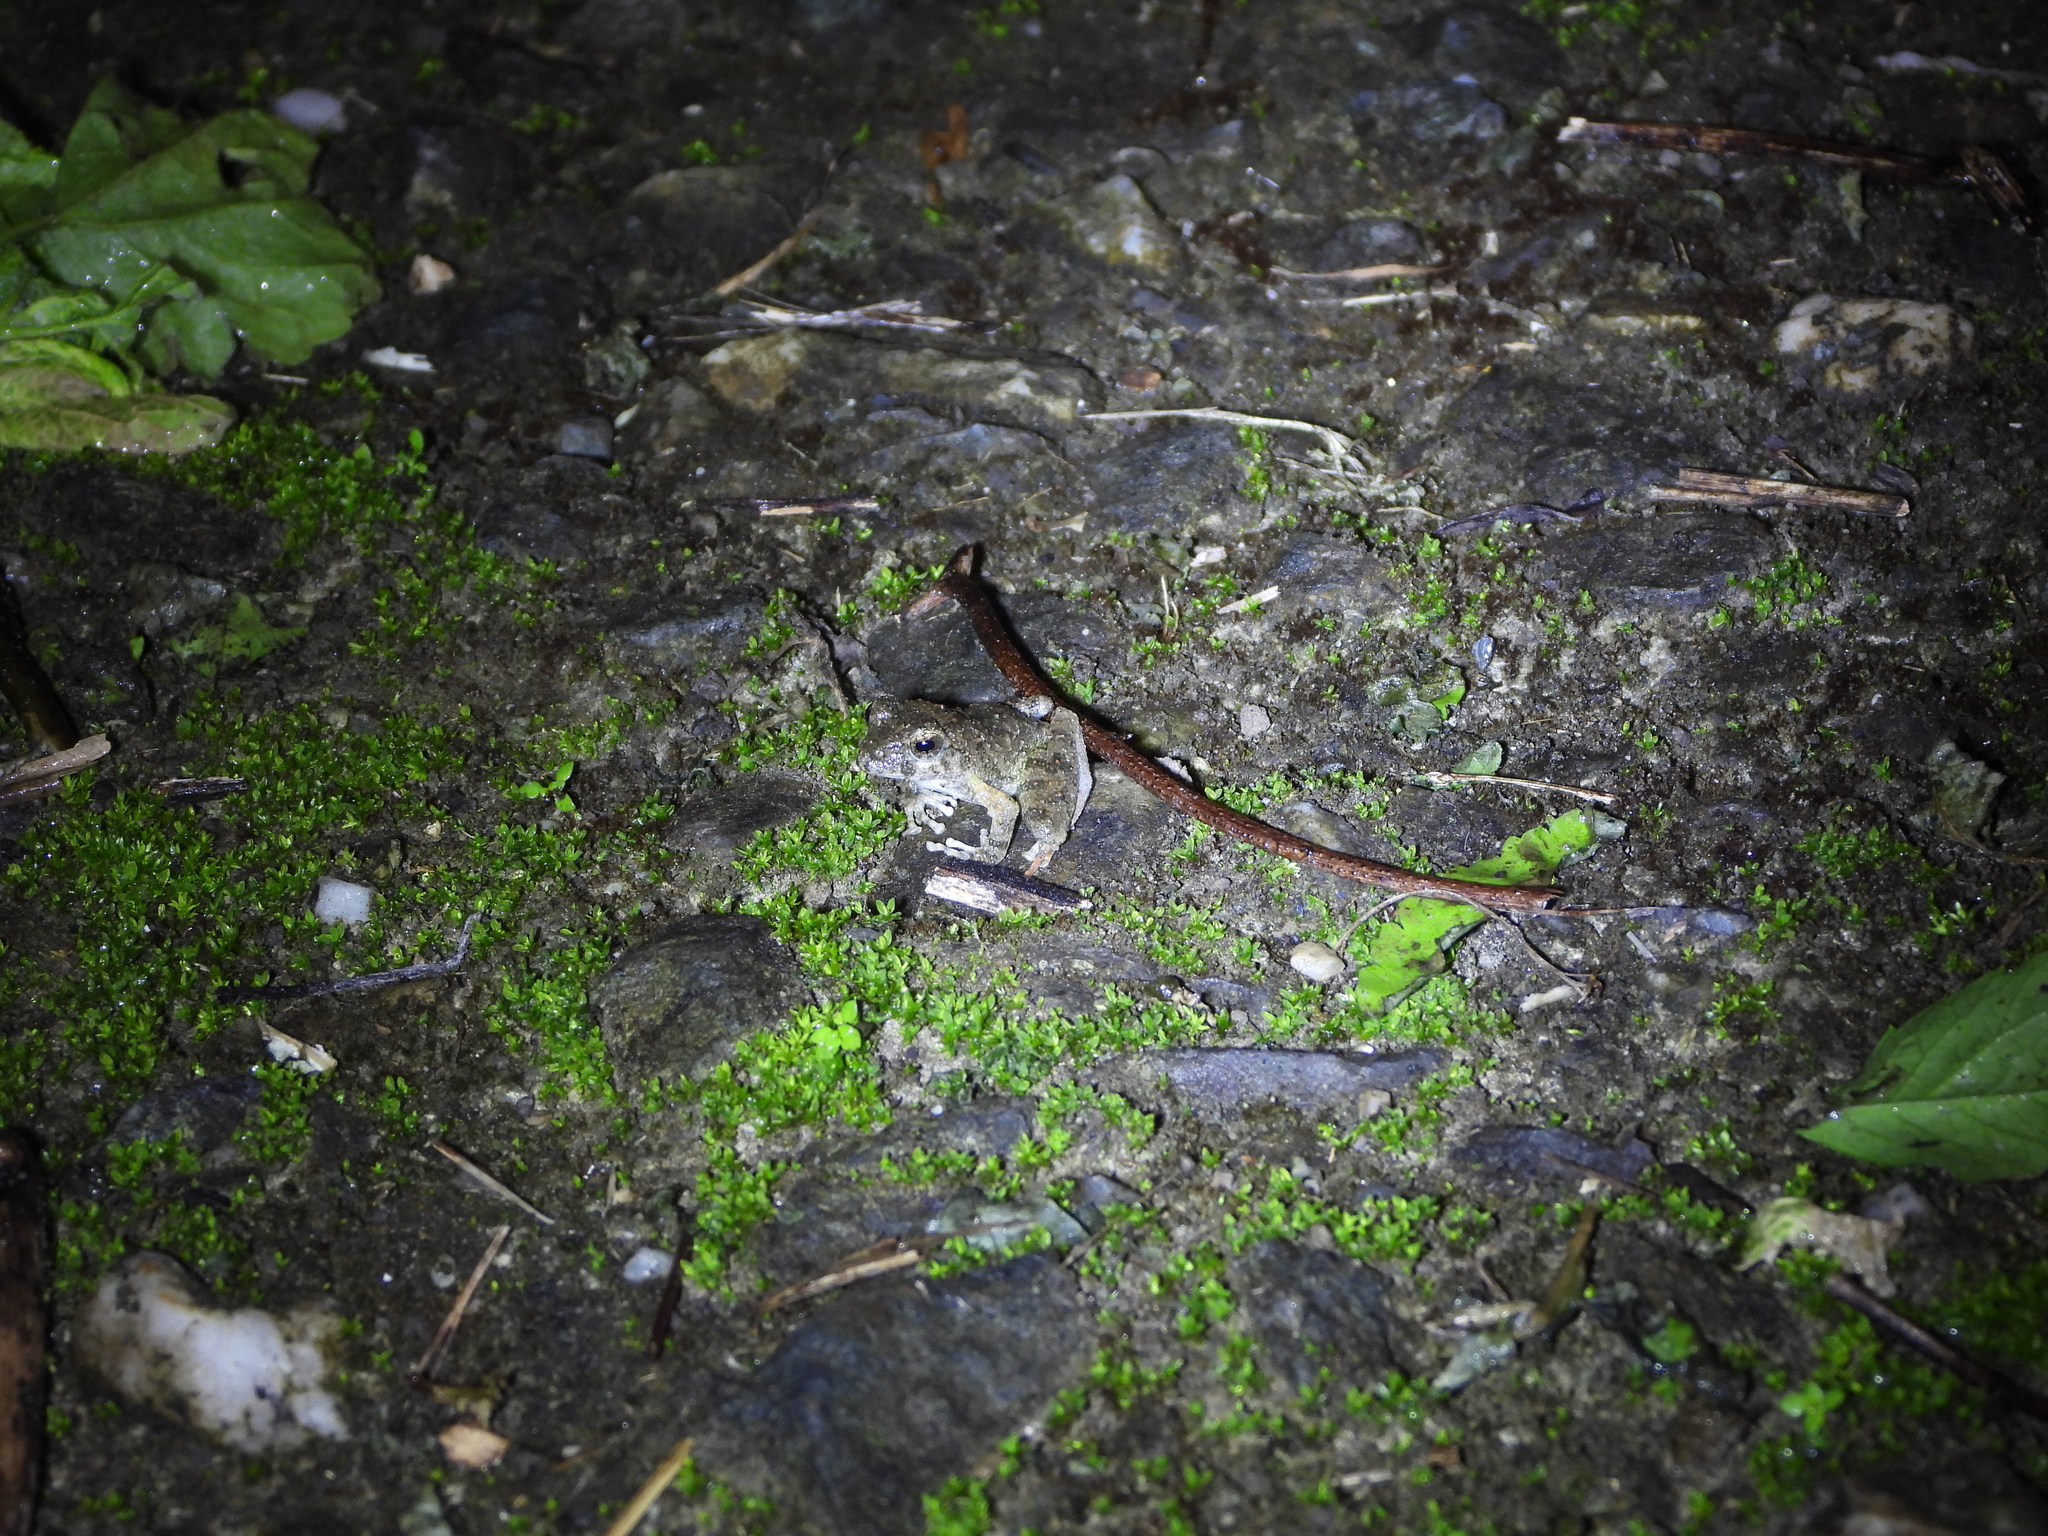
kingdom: Animalia
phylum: Chordata
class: Amphibia
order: Anura
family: Rhacophoridae
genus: Buergeria
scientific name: Buergeria otai
